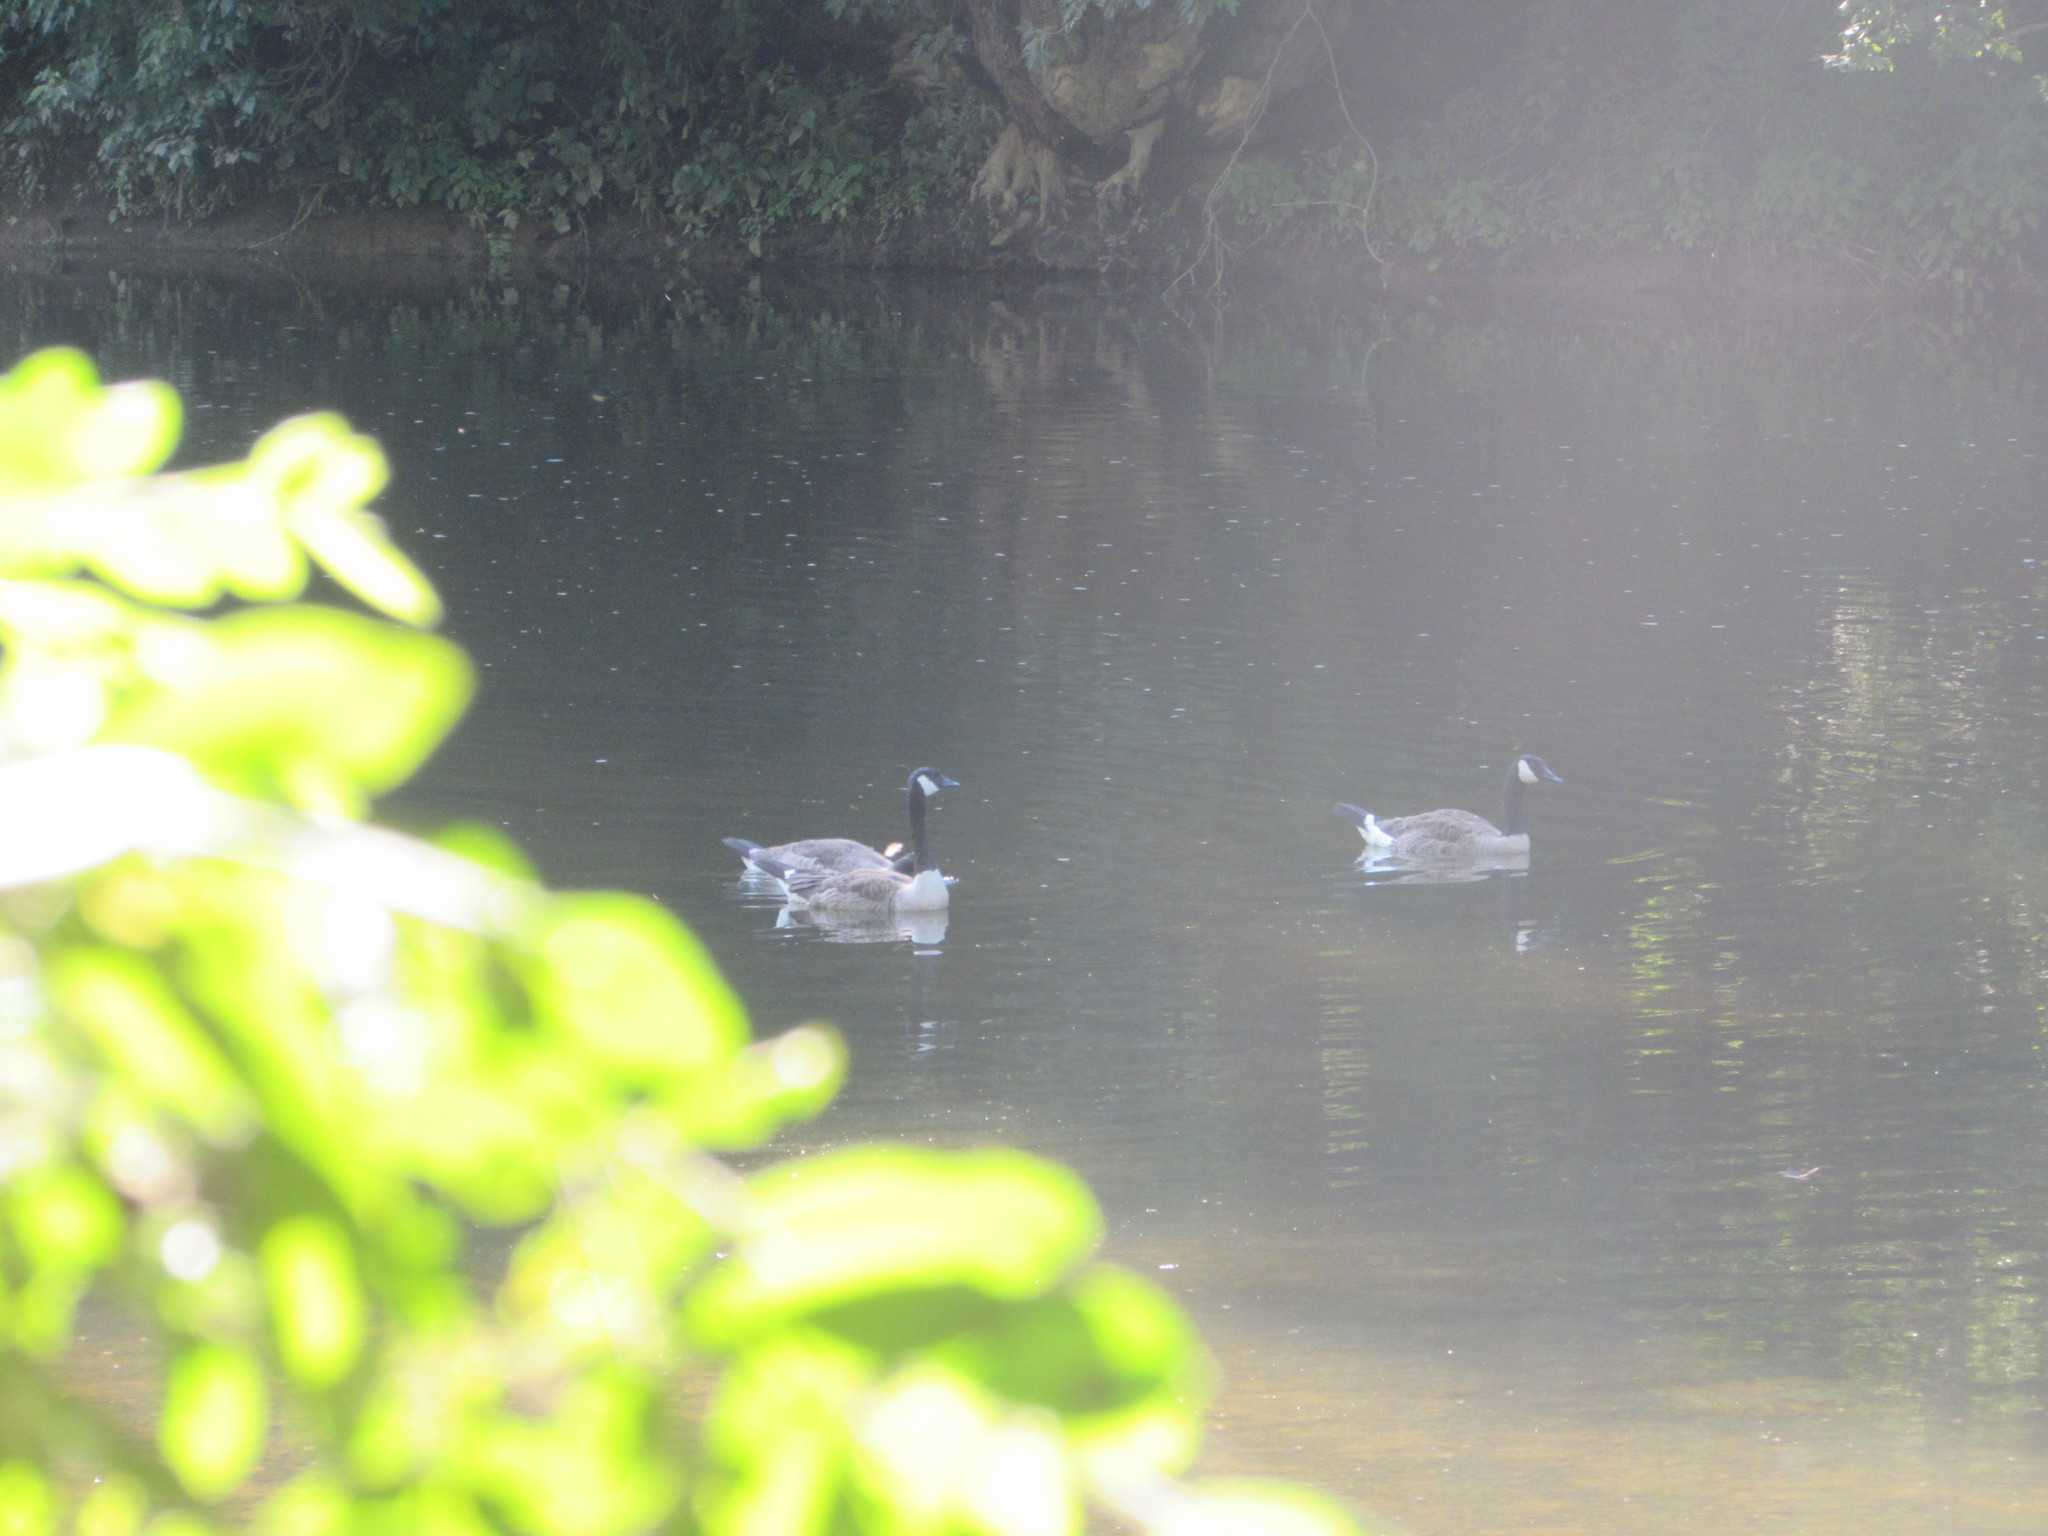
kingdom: Animalia
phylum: Chordata
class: Aves
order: Anseriformes
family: Anatidae
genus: Branta
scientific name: Branta canadensis
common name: Canada goose
